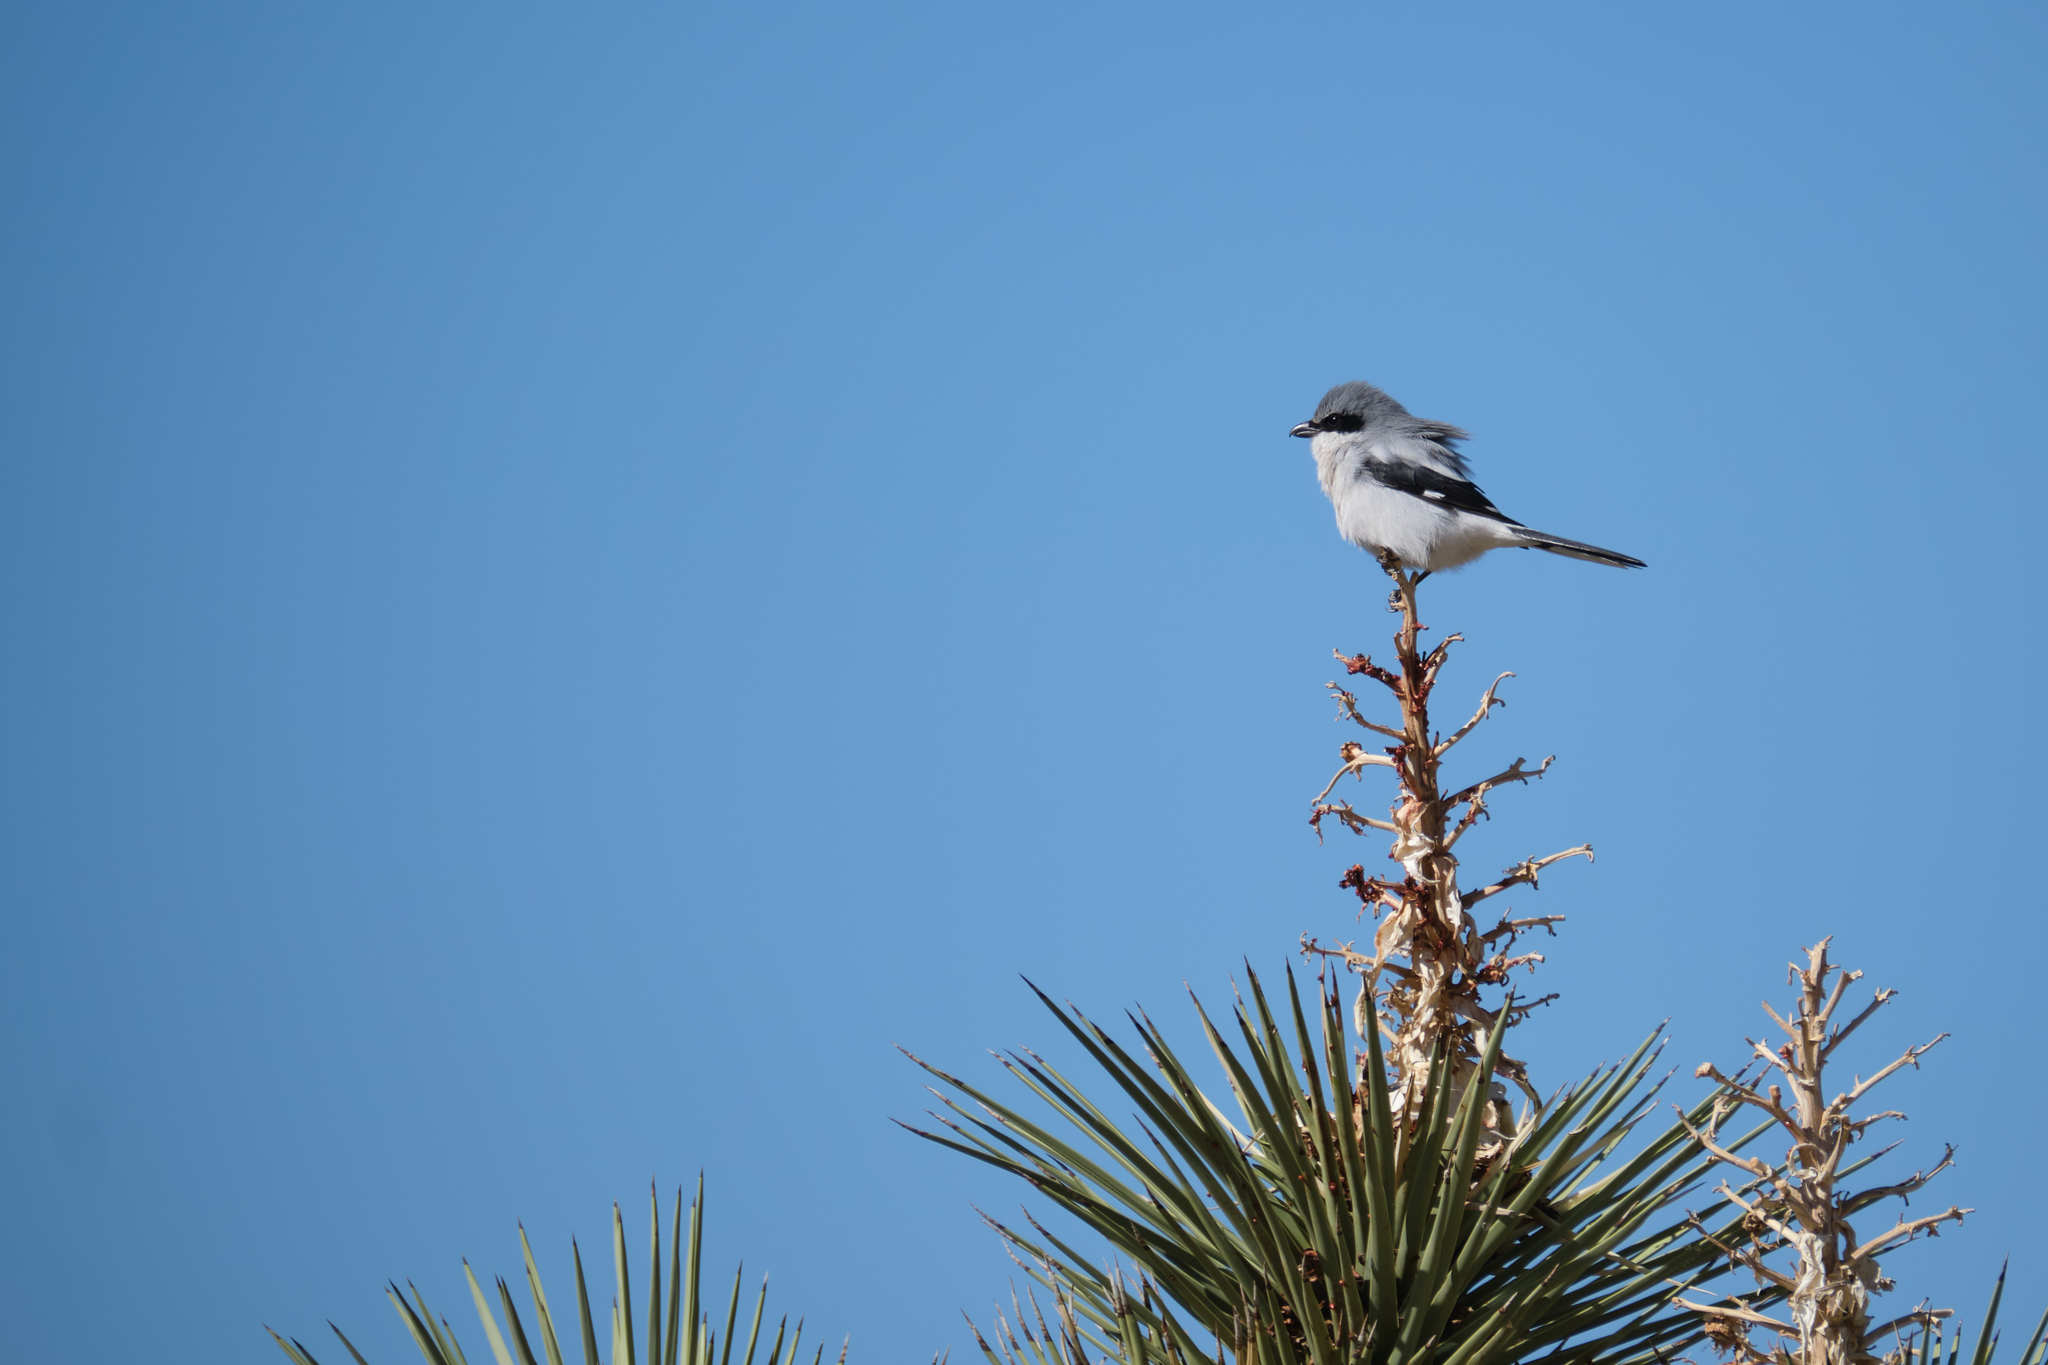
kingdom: Animalia
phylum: Chordata
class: Aves
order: Passeriformes
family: Laniidae
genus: Lanius
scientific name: Lanius ludovicianus
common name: Loggerhead shrike
